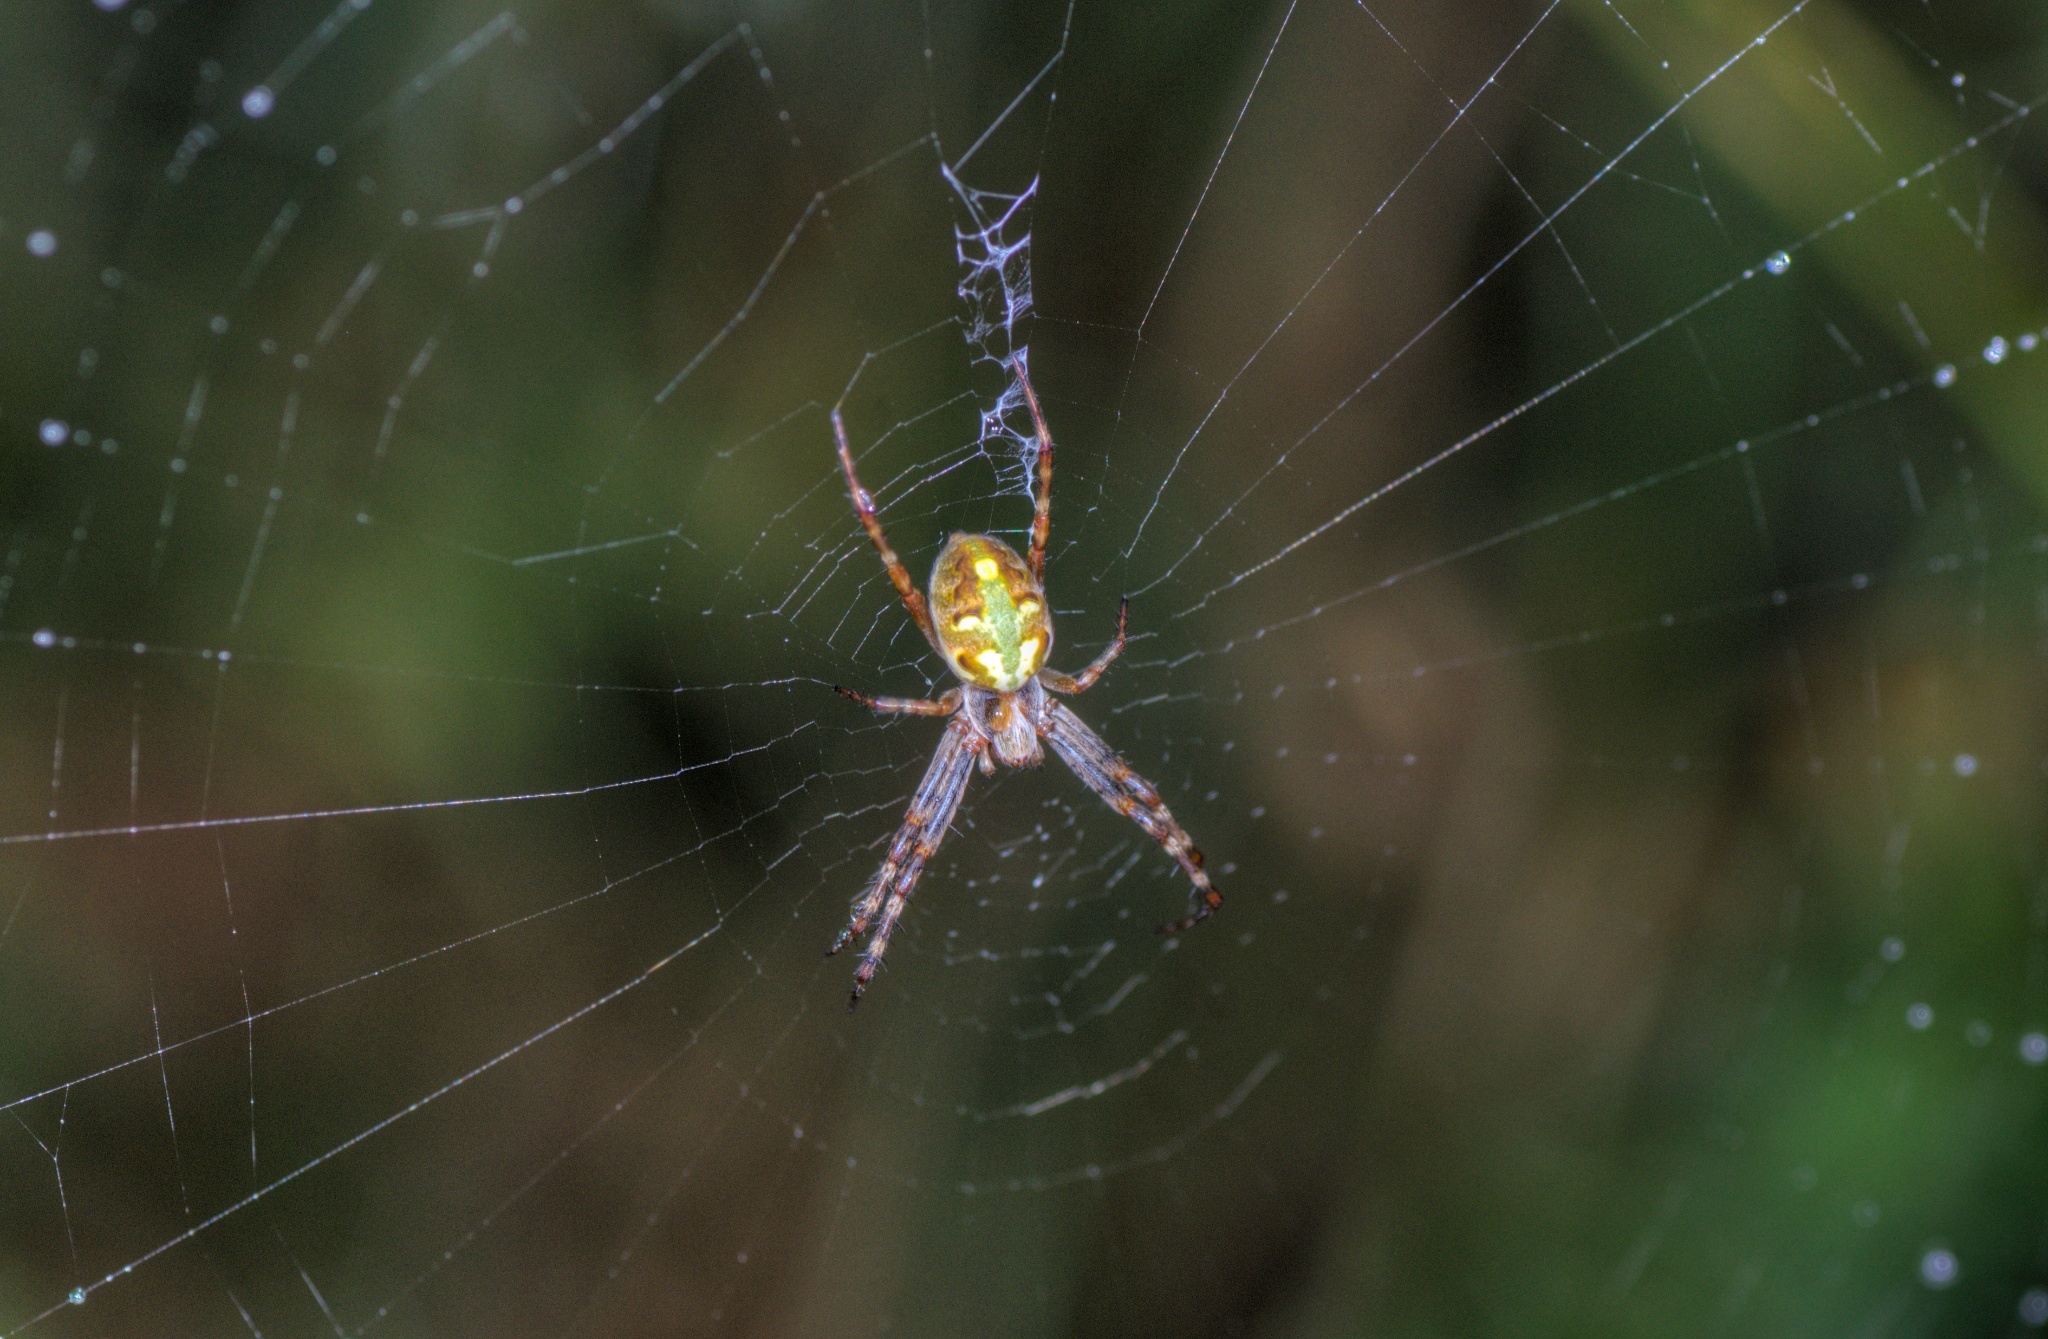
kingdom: Animalia
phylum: Arthropoda
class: Arachnida
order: Araneae
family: Araneidae
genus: Novaranea
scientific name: Novaranea queribunda
